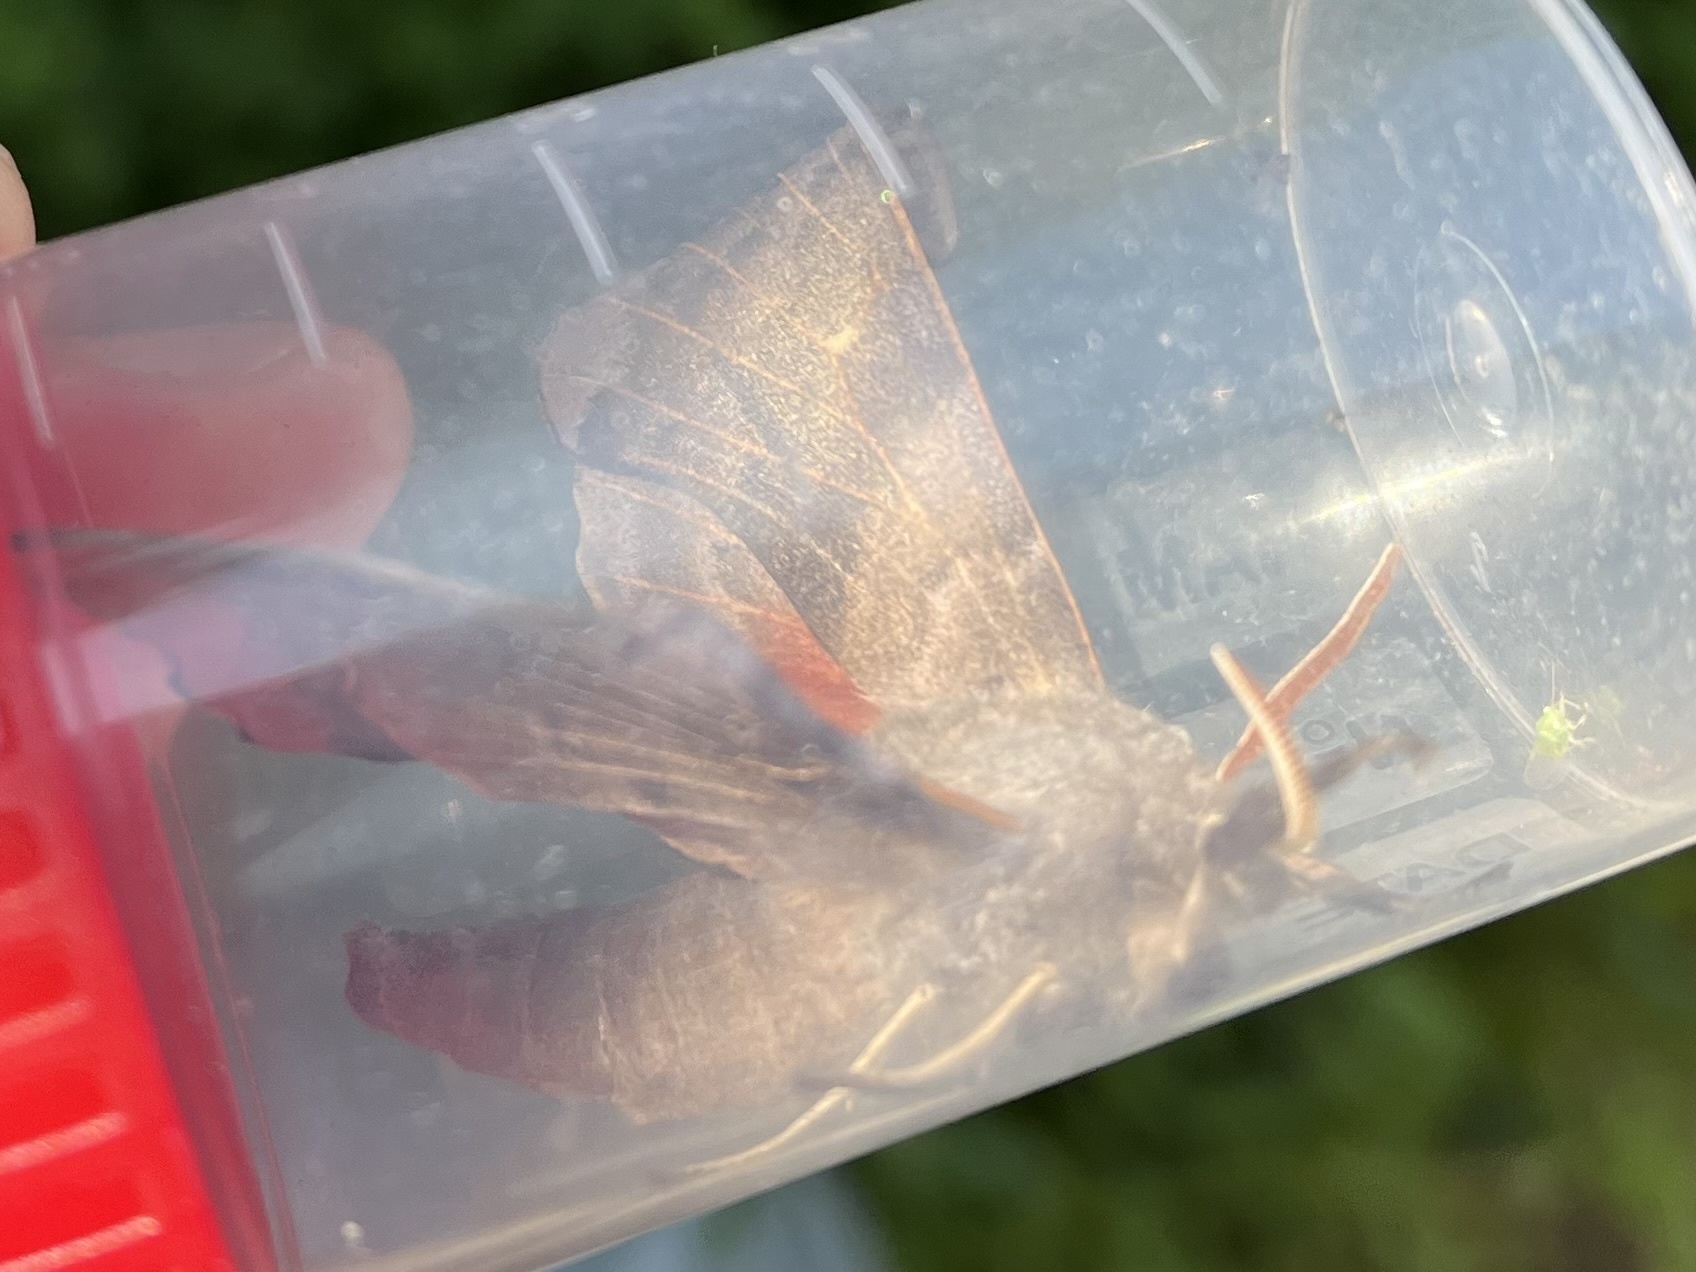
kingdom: Animalia
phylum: Arthropoda
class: Insecta
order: Lepidoptera
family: Sphingidae
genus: Laothoe
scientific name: Laothoe populi
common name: Poplar hawk-moth
